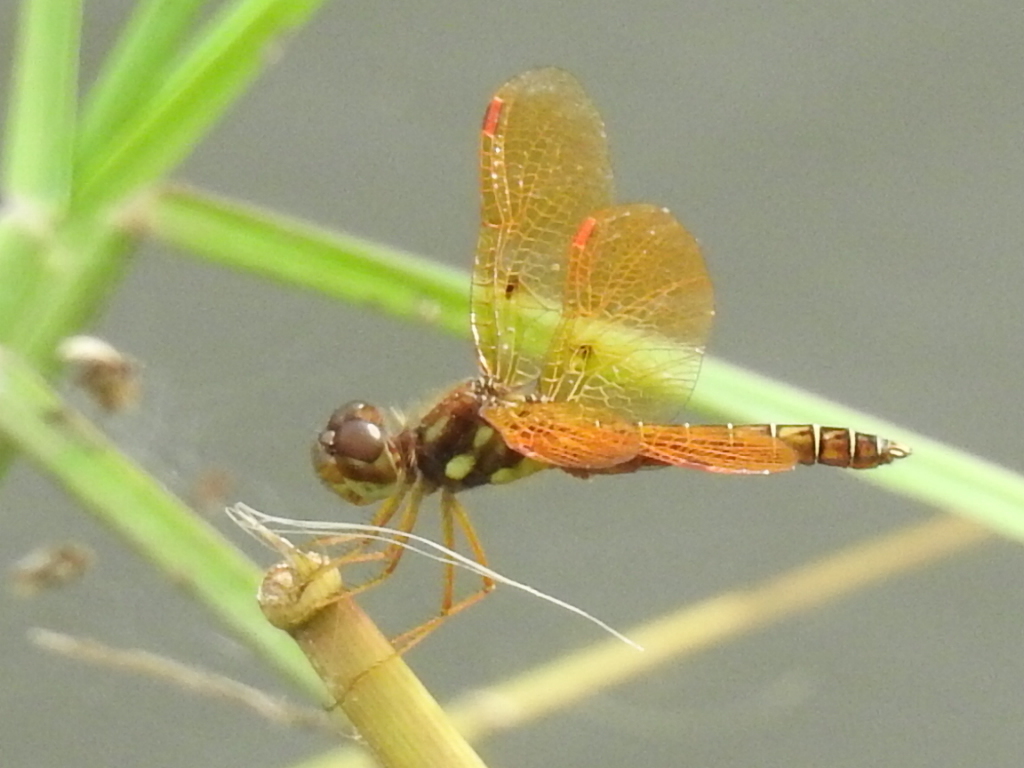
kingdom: Animalia
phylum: Arthropoda
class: Insecta
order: Odonata
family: Libellulidae
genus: Perithemis
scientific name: Perithemis tenera
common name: Eastern amberwing
